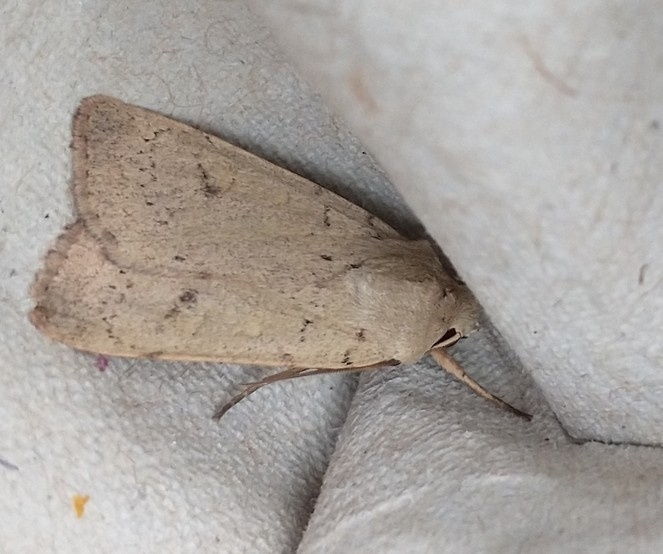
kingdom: Animalia
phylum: Arthropoda
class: Insecta
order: Lepidoptera
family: Noctuidae
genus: Xestia
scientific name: Xestia castanea
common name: Neglected rustic
